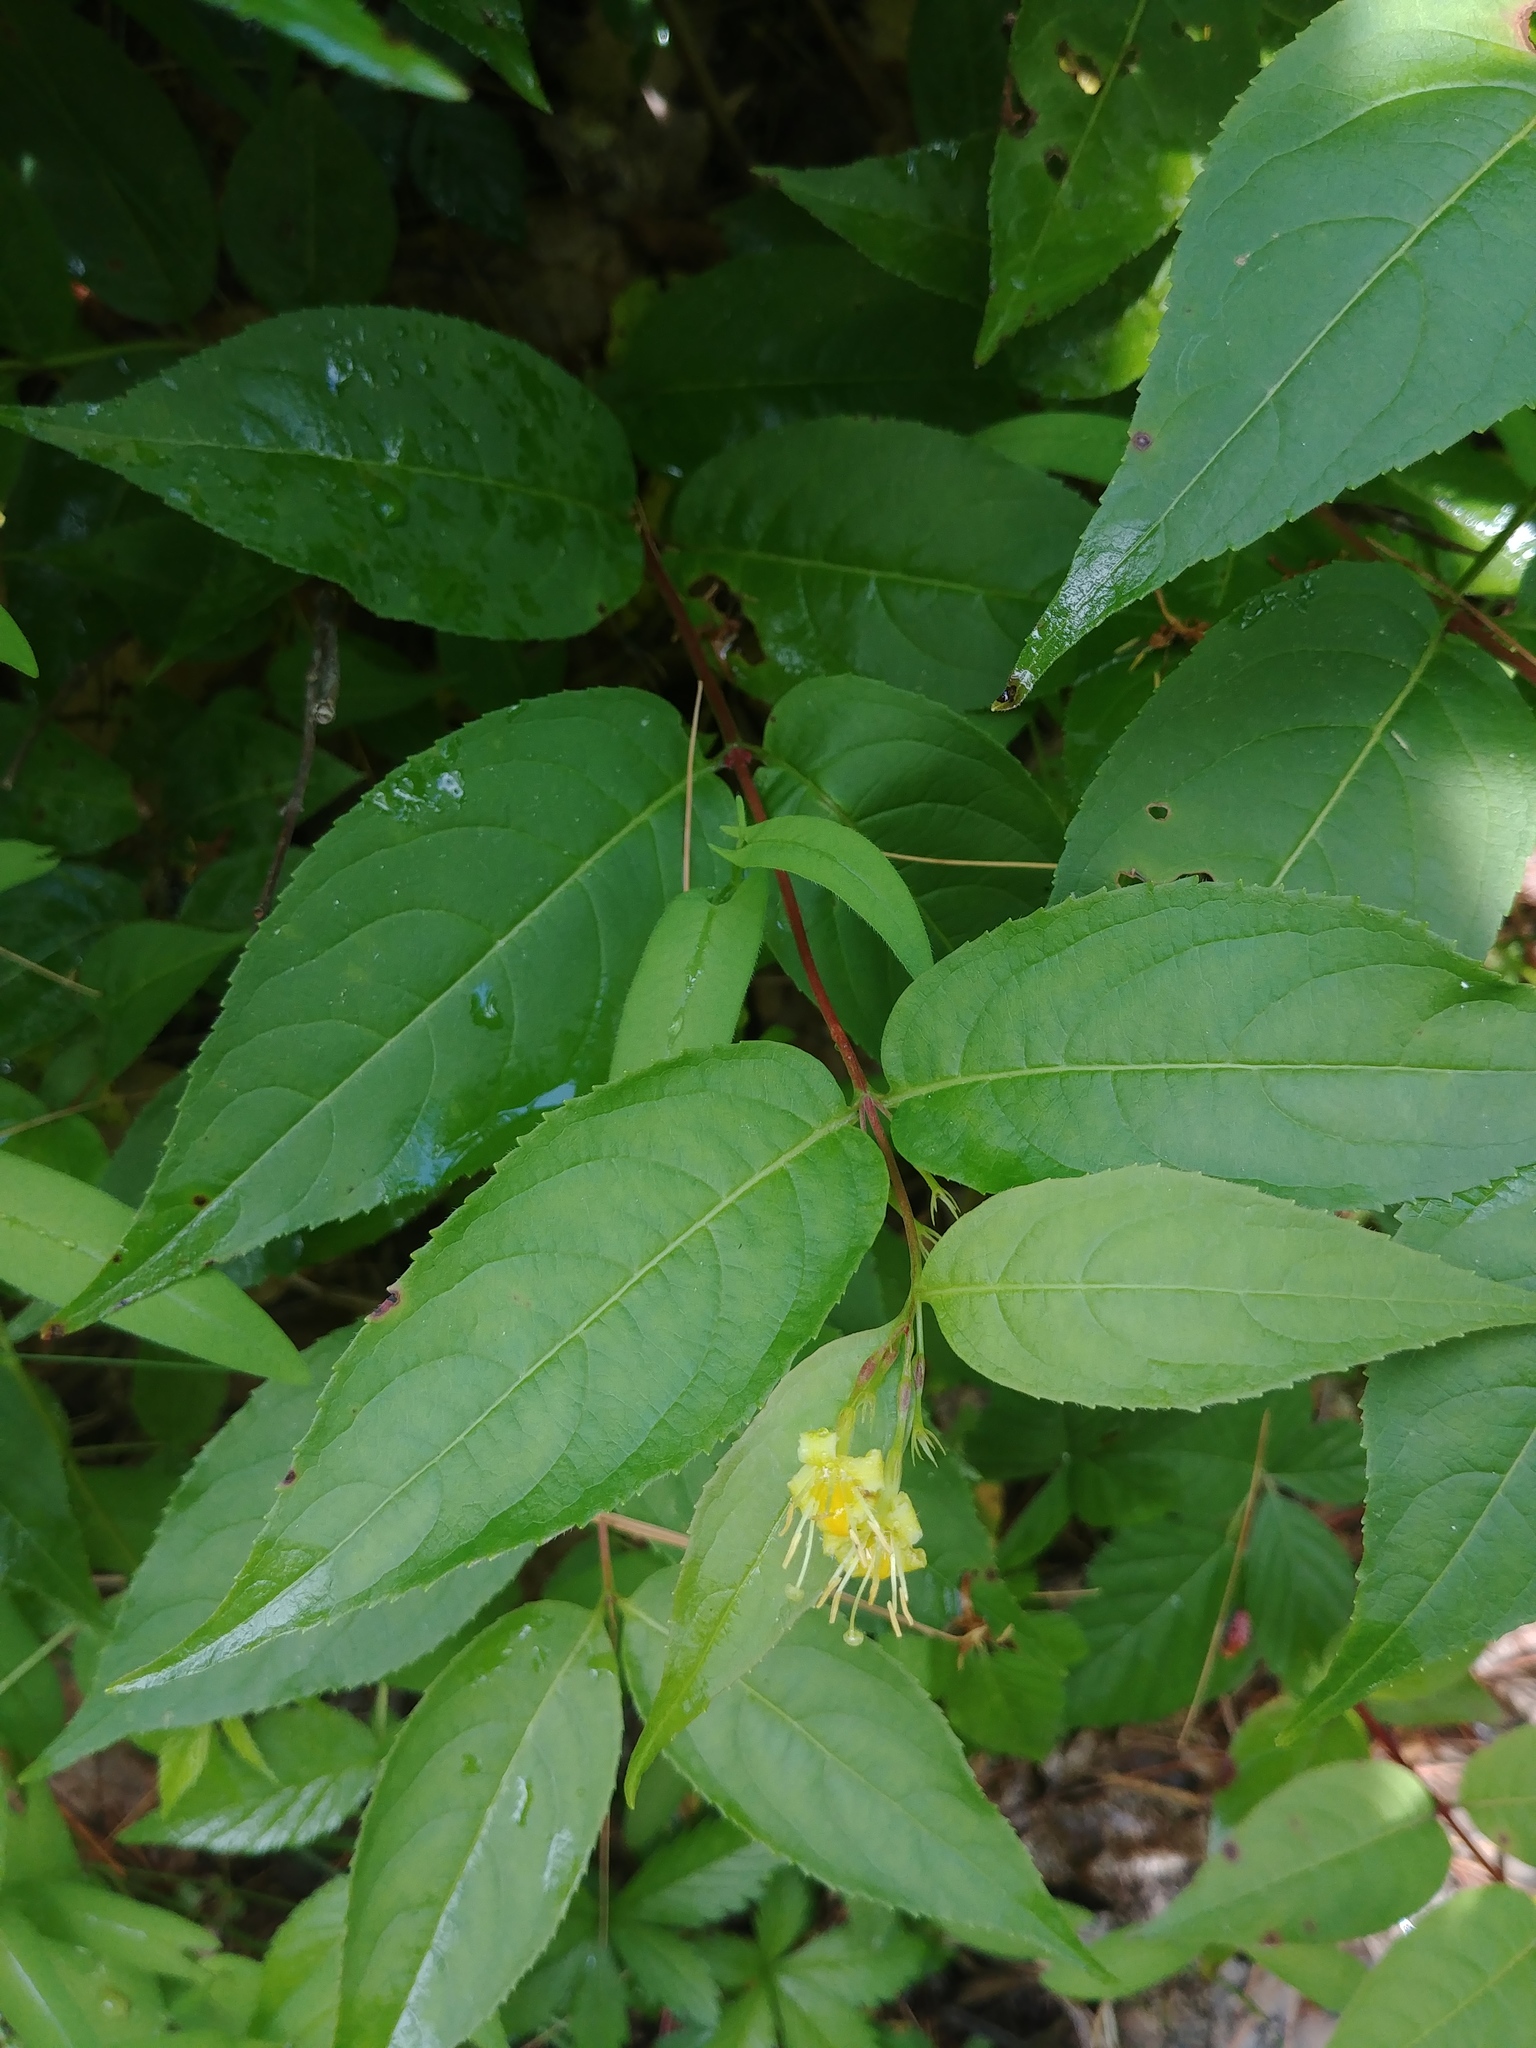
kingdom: Plantae
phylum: Tracheophyta
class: Magnoliopsida
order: Dipsacales
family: Caprifoliaceae
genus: Diervilla
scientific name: Diervilla lonicera
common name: Bush-honeysuckle
